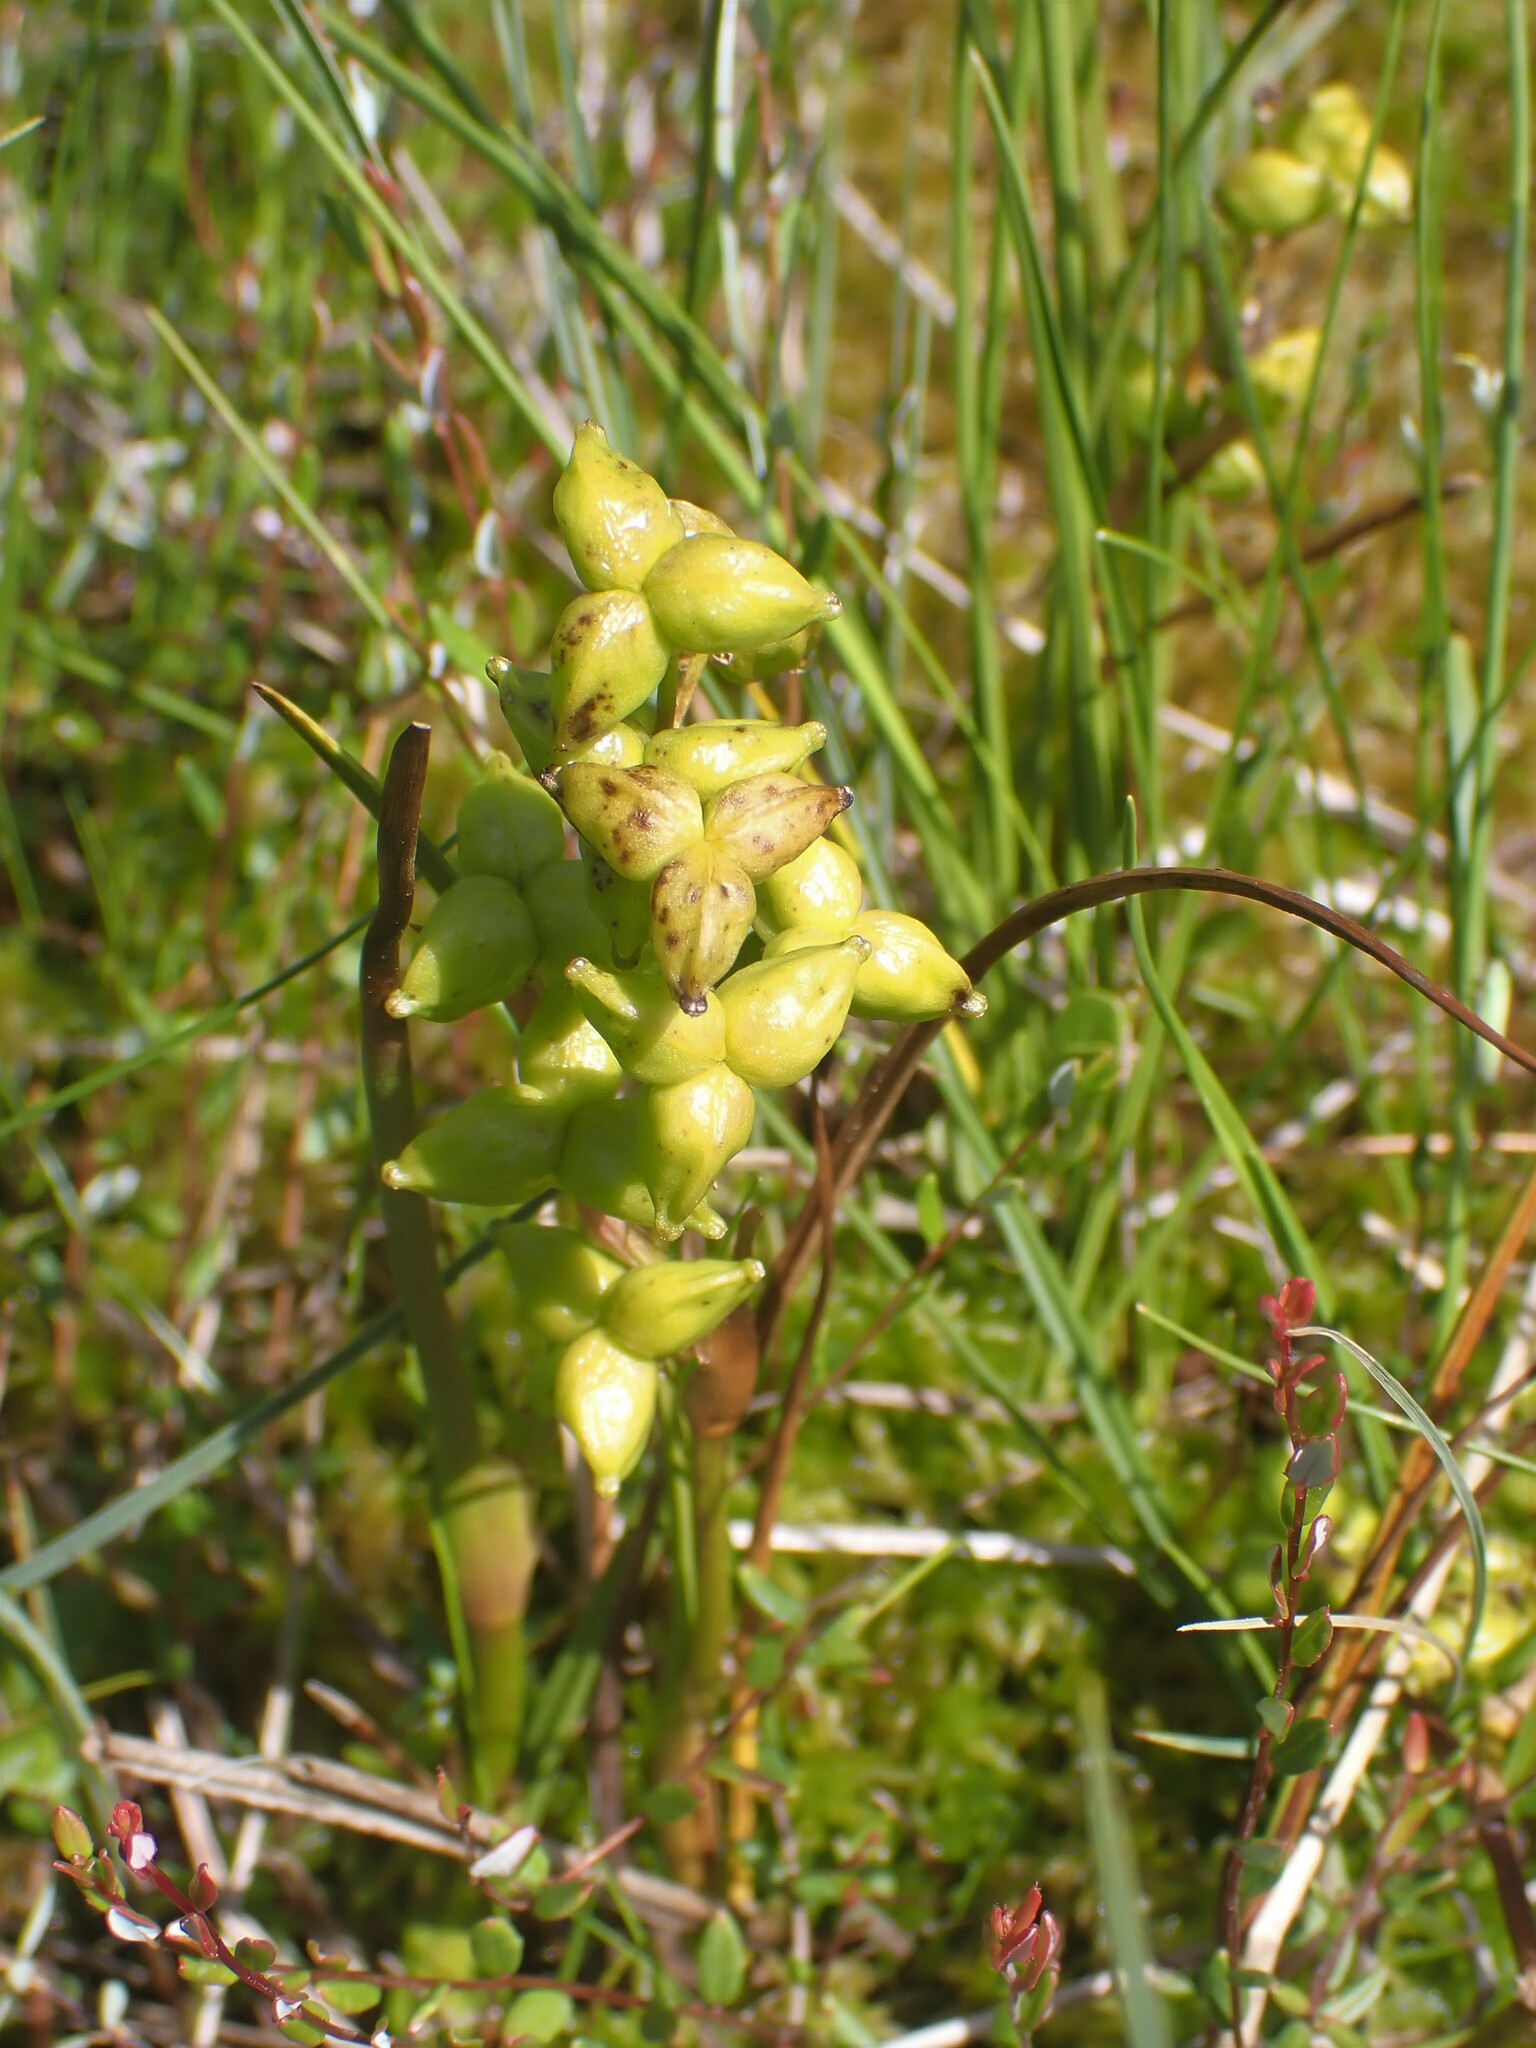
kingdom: Plantae
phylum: Tracheophyta
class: Liliopsida
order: Alismatales
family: Scheuchzeriaceae
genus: Scheuchzeria
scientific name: Scheuchzeria palustris
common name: Rannoch-rush
